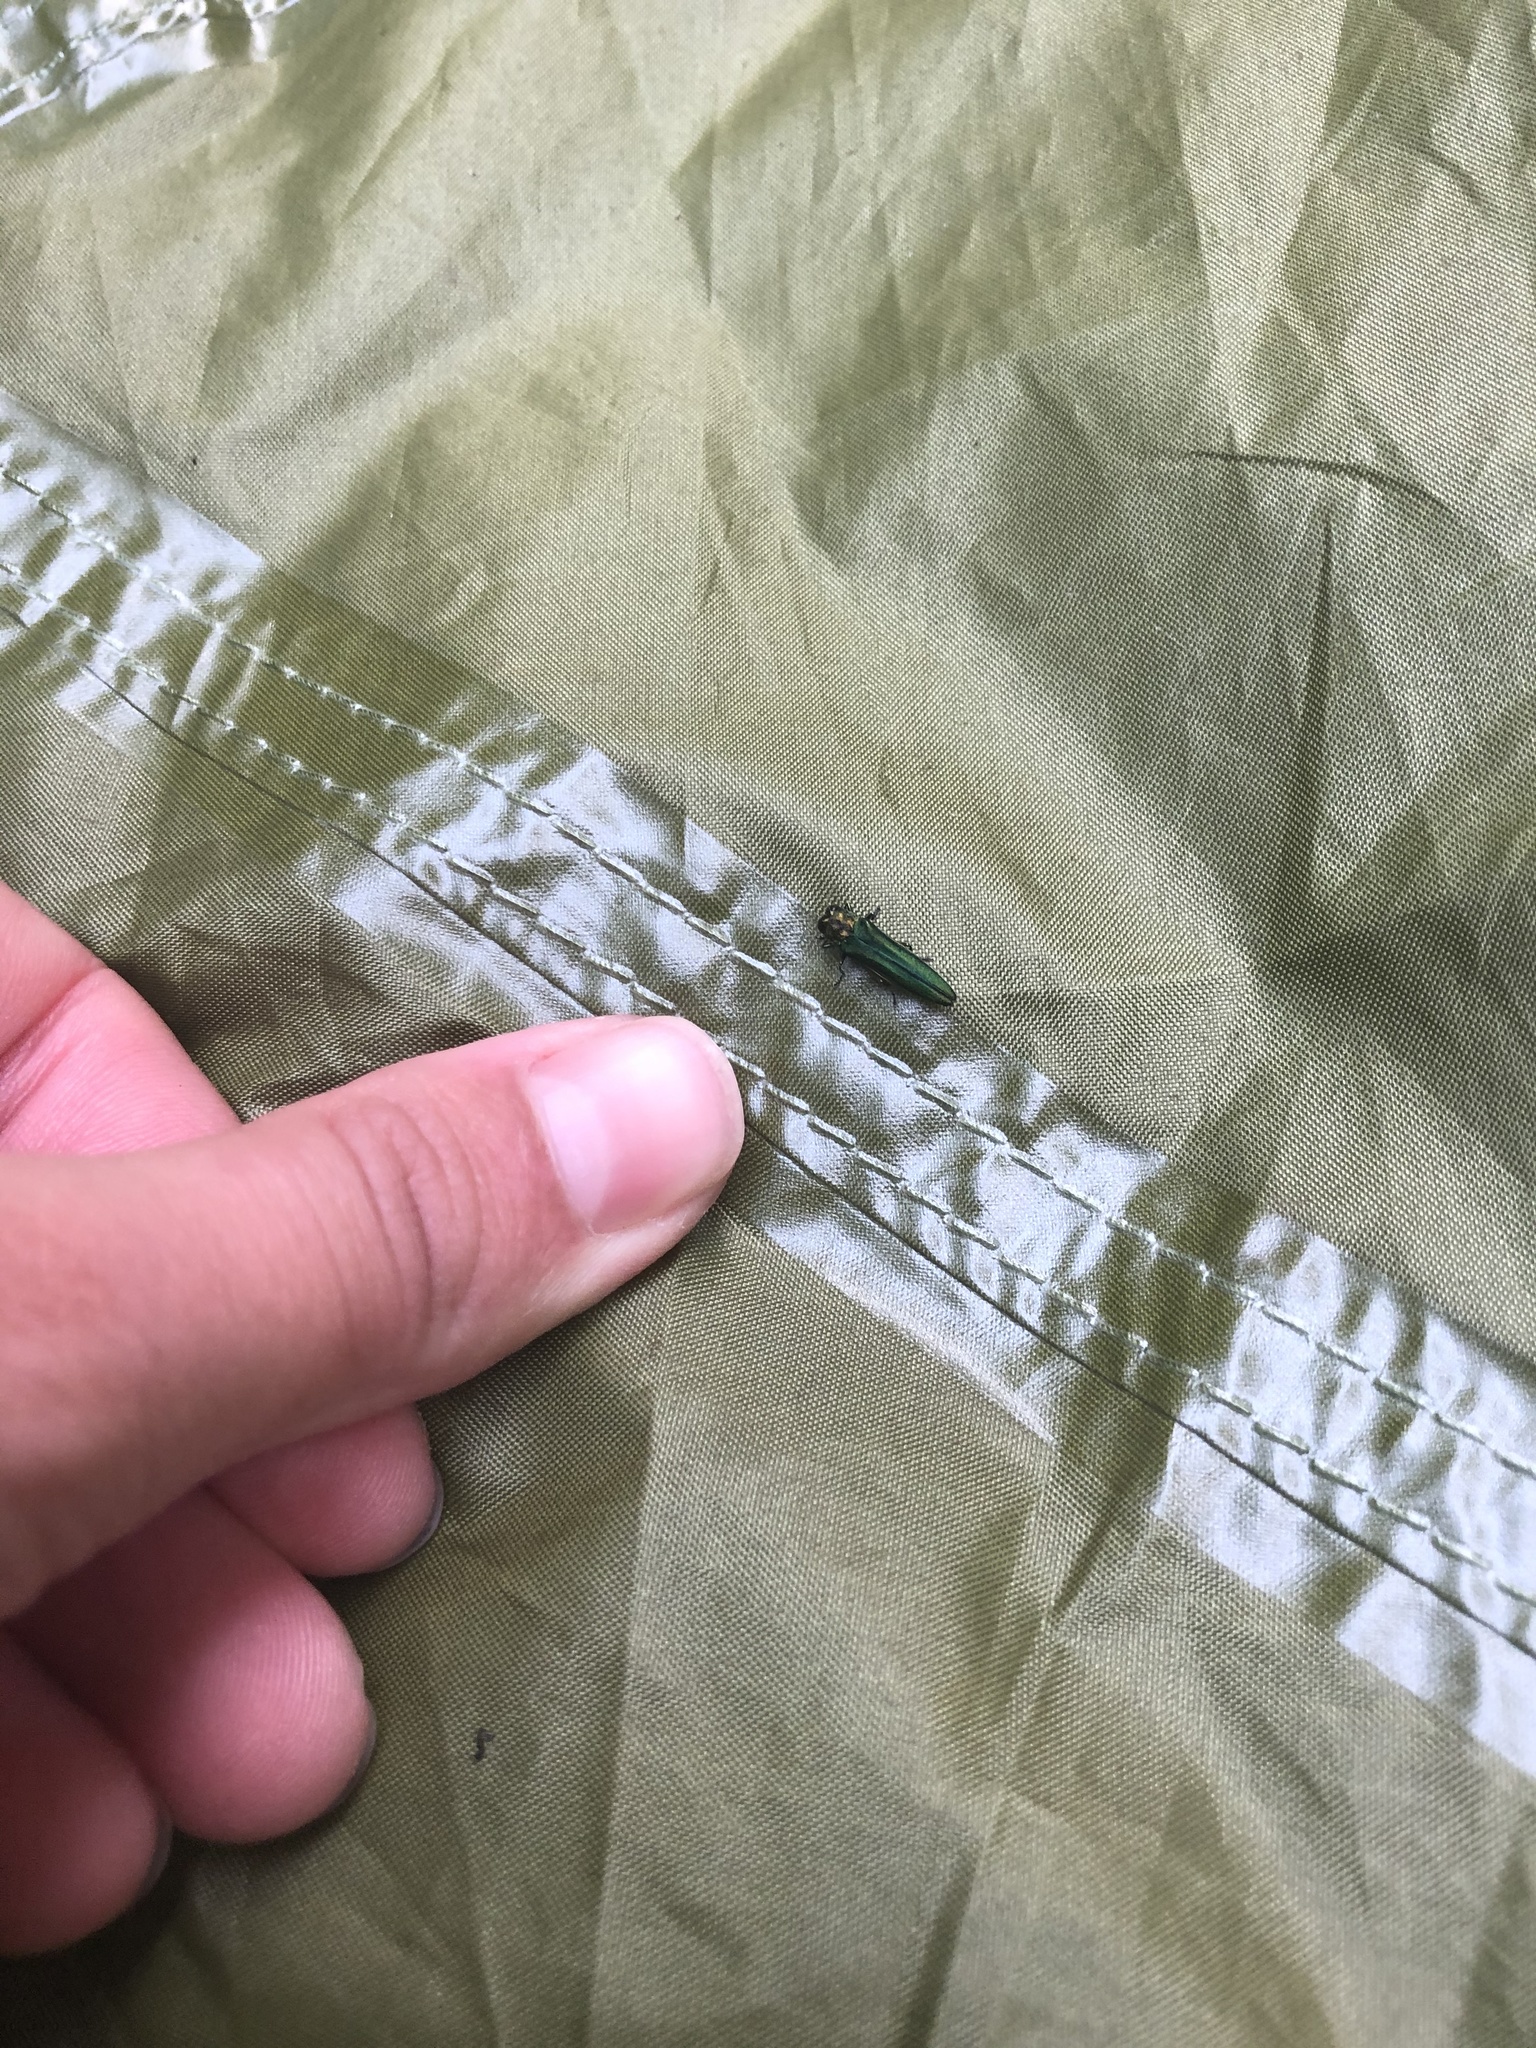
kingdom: Animalia
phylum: Arthropoda
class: Insecta
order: Coleoptera
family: Buprestidae
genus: Agrilus
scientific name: Agrilus planipennis
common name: Emerald ash borer
